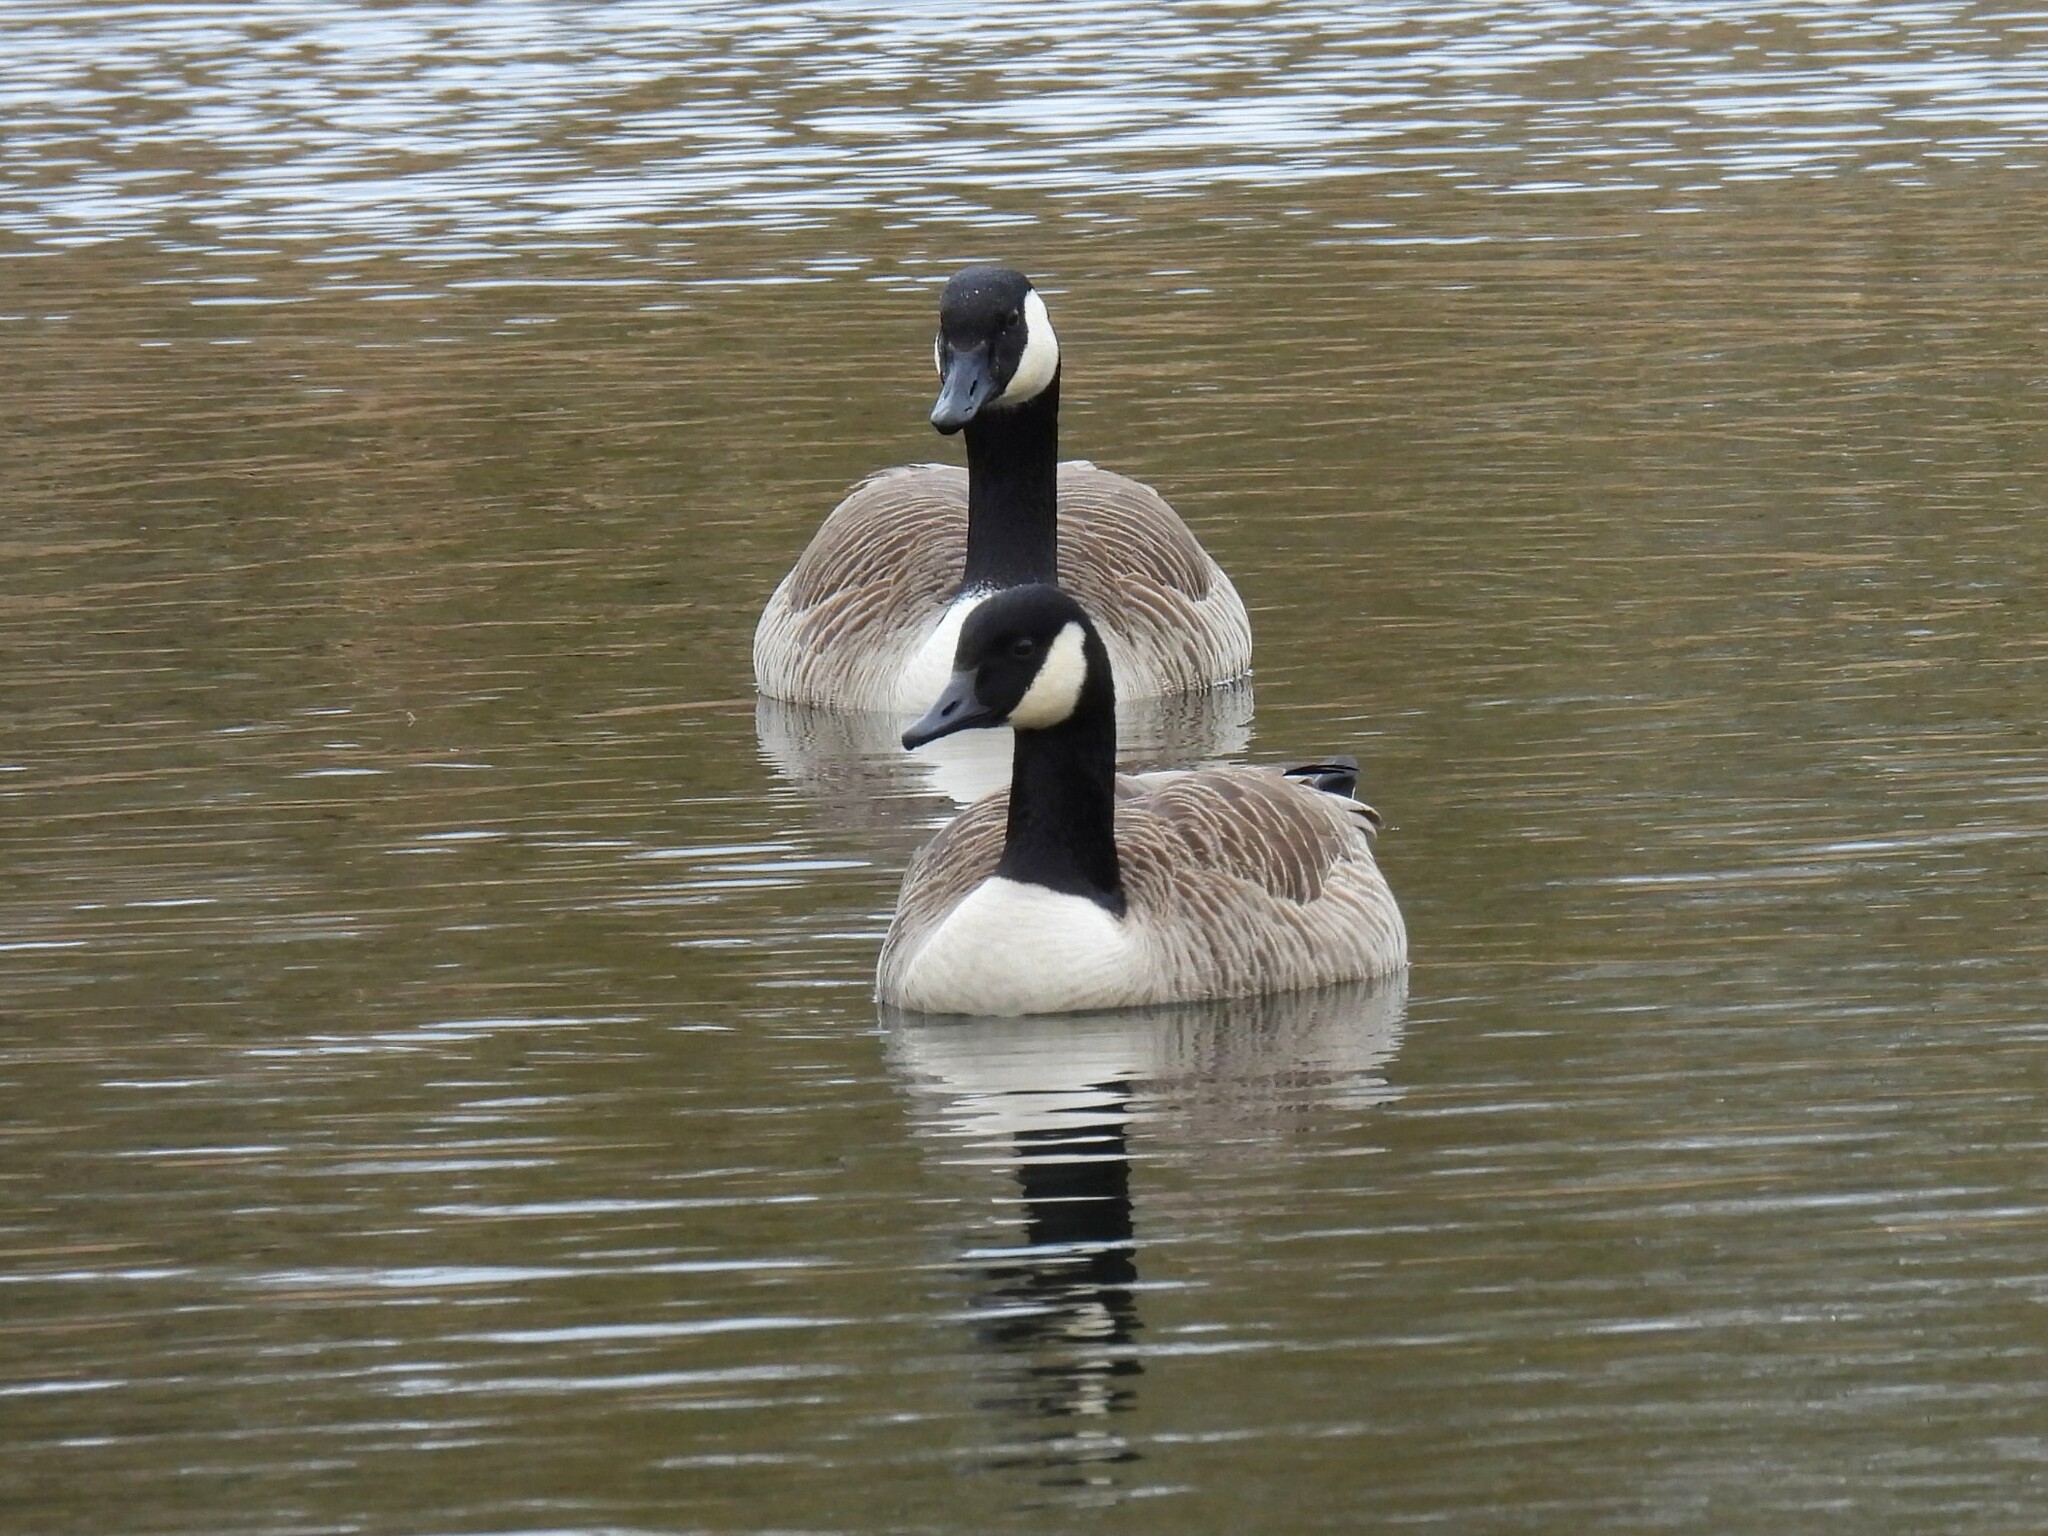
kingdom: Animalia
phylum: Chordata
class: Aves
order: Anseriformes
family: Anatidae
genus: Branta
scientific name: Branta canadensis
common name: Canada goose
